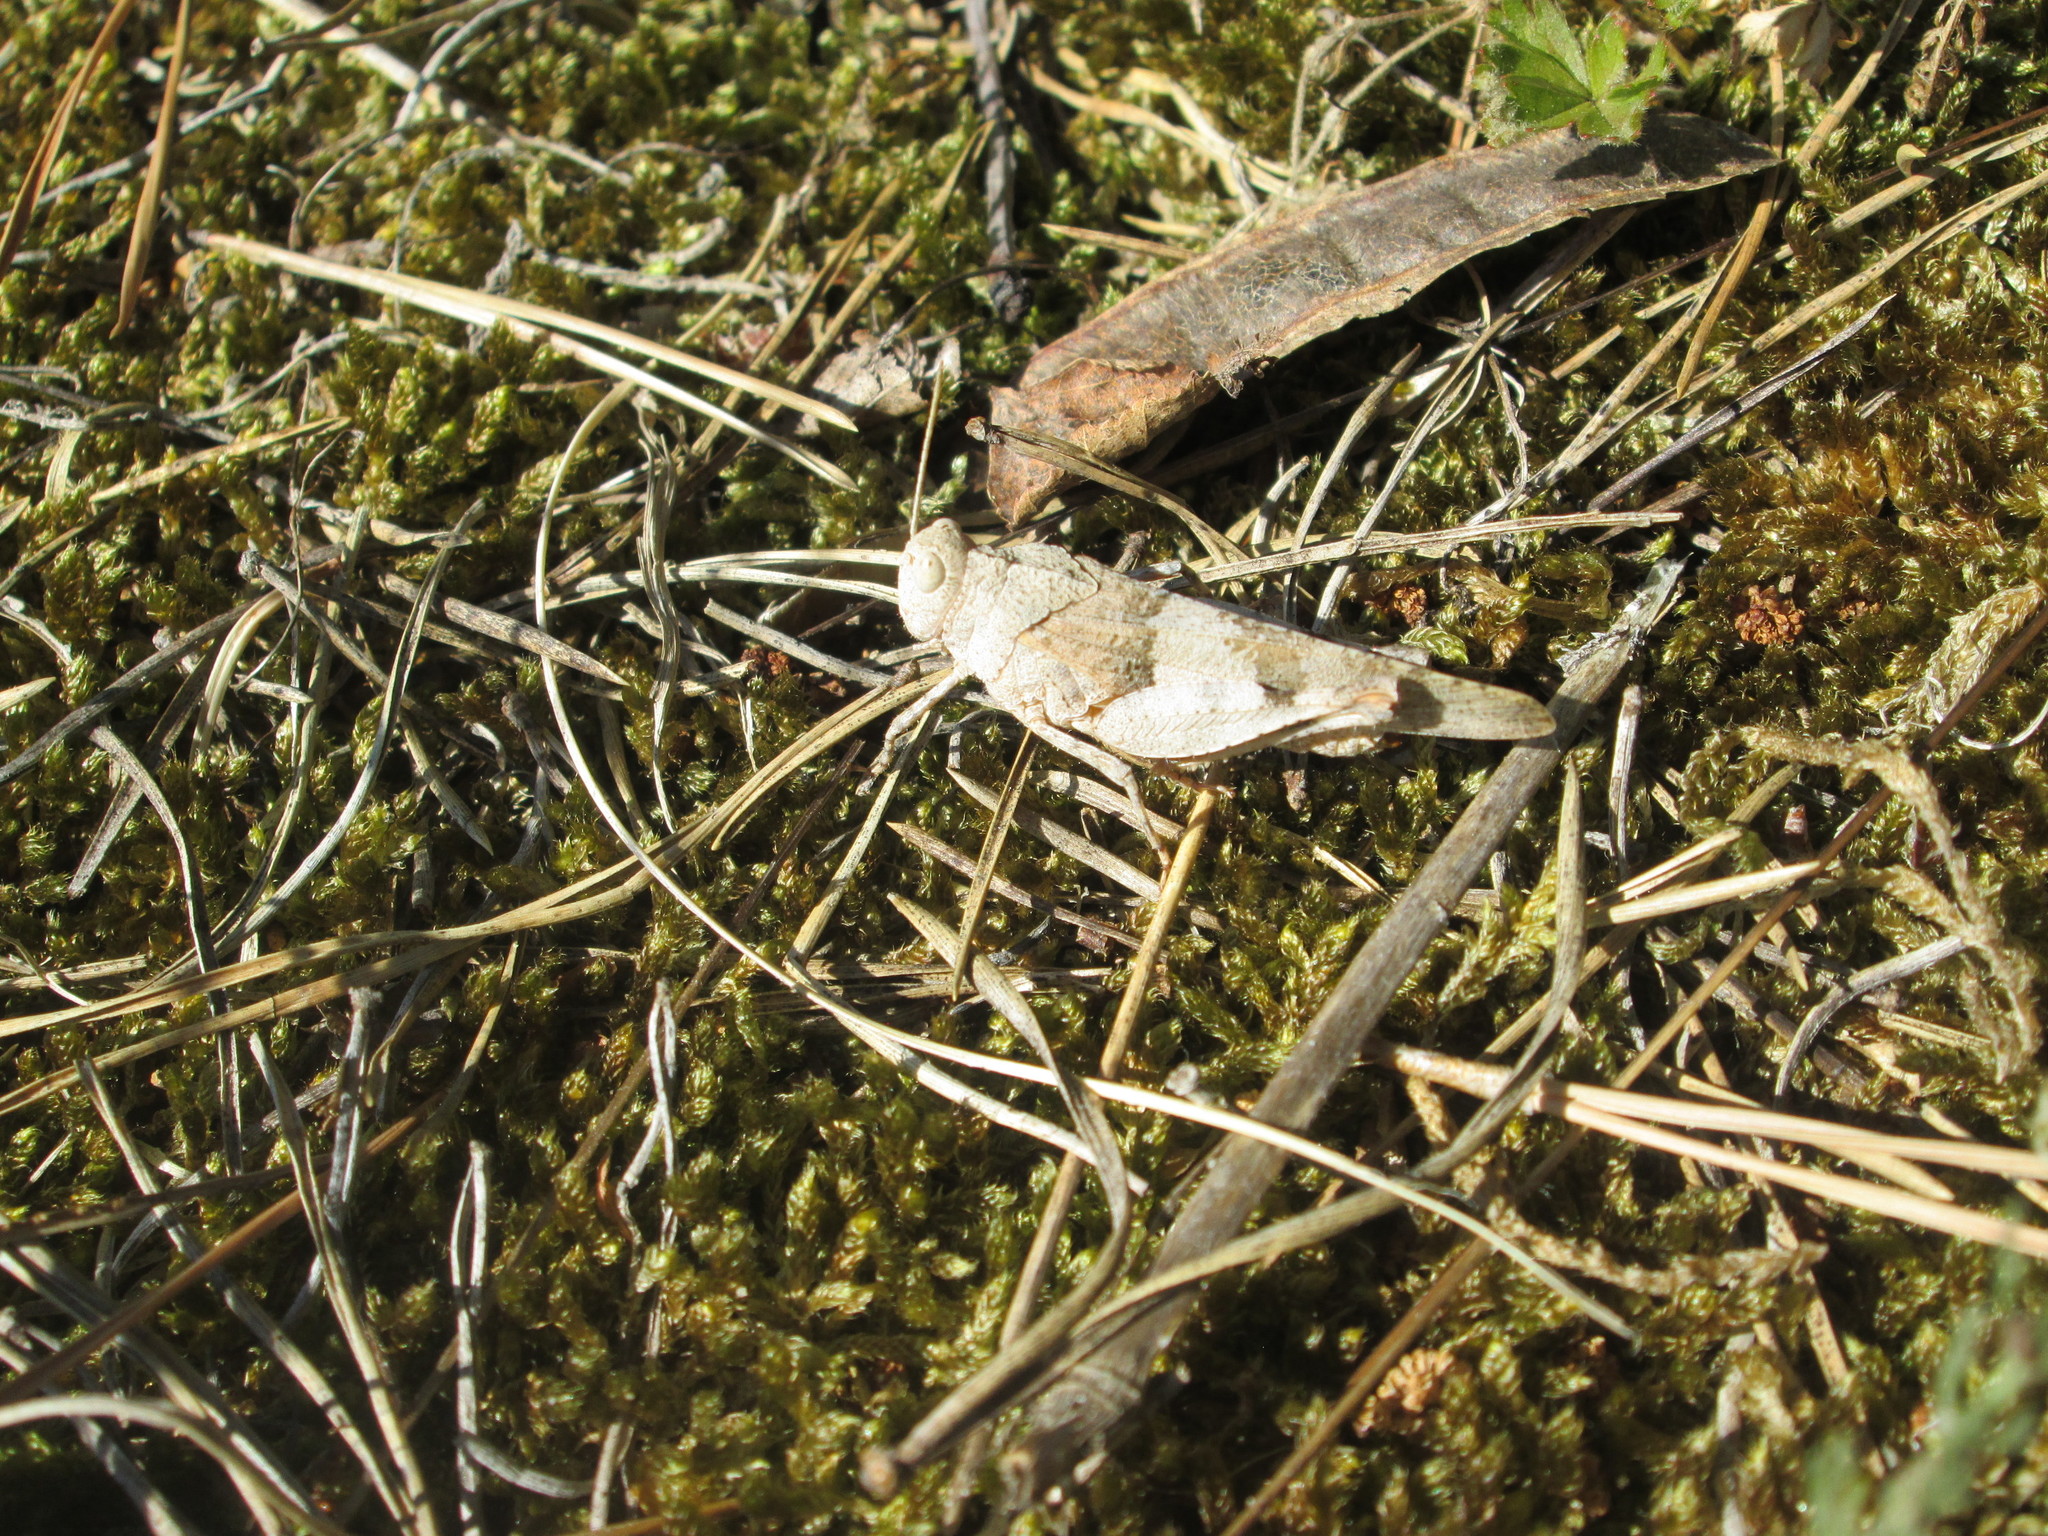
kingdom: Animalia
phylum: Arthropoda
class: Insecta
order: Orthoptera
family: Acrididae
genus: Oedipoda
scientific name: Oedipoda caerulescens
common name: Blue-winged grasshopper
